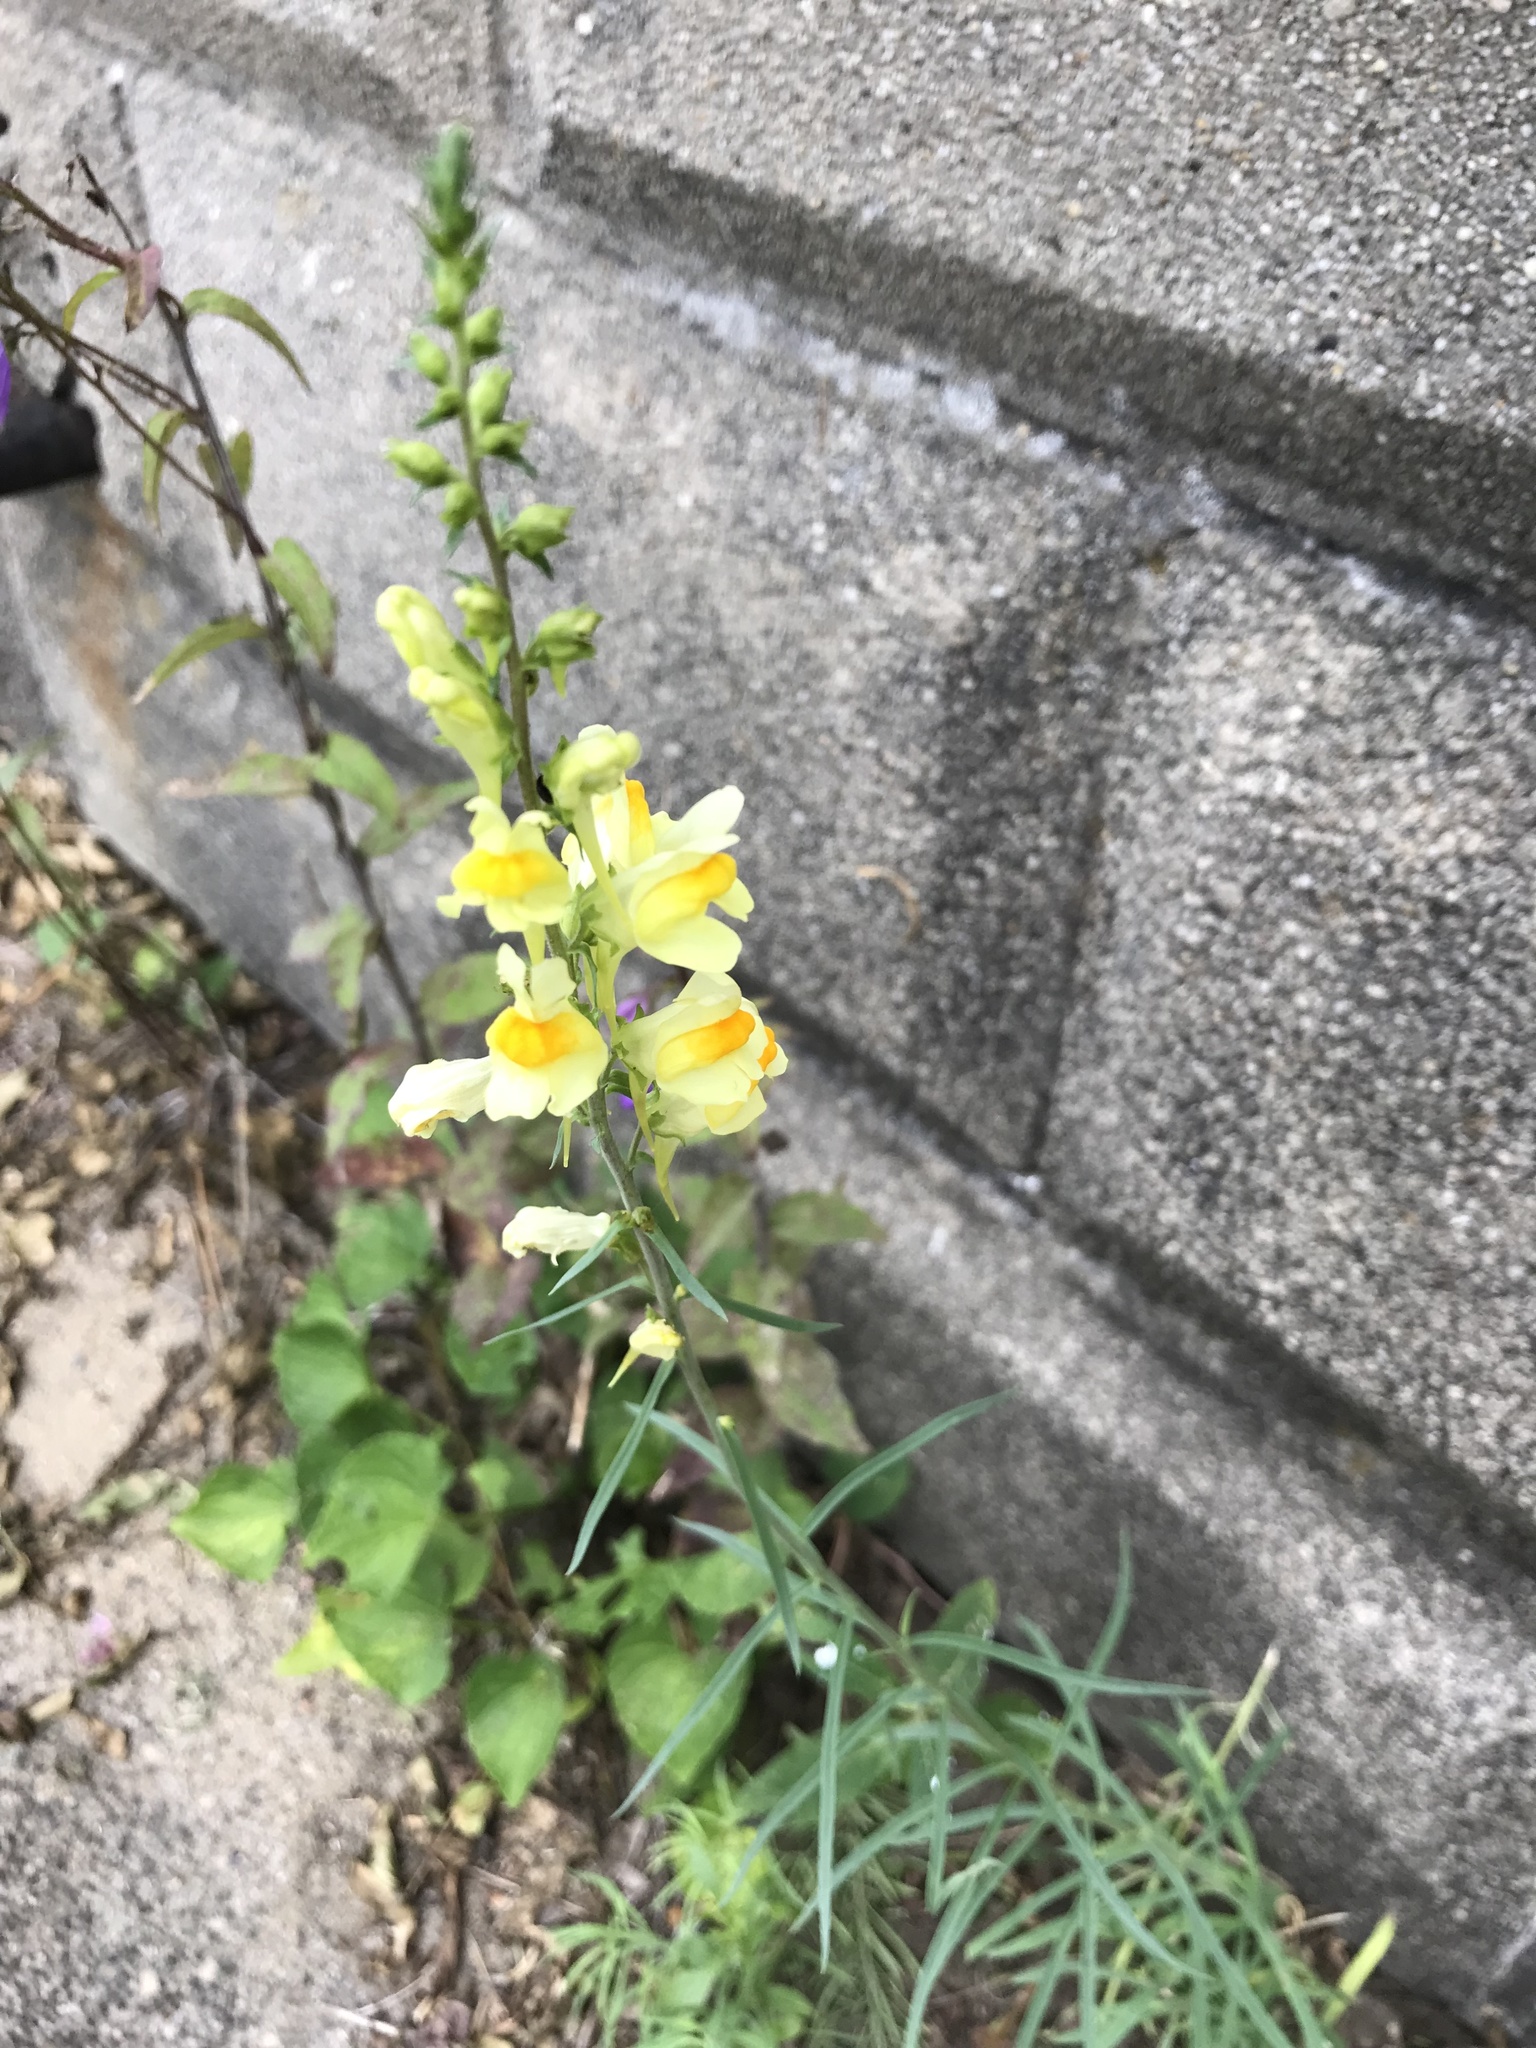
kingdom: Plantae
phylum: Tracheophyta
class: Magnoliopsida
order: Lamiales
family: Plantaginaceae
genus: Linaria
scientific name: Linaria vulgaris
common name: Butter and eggs
